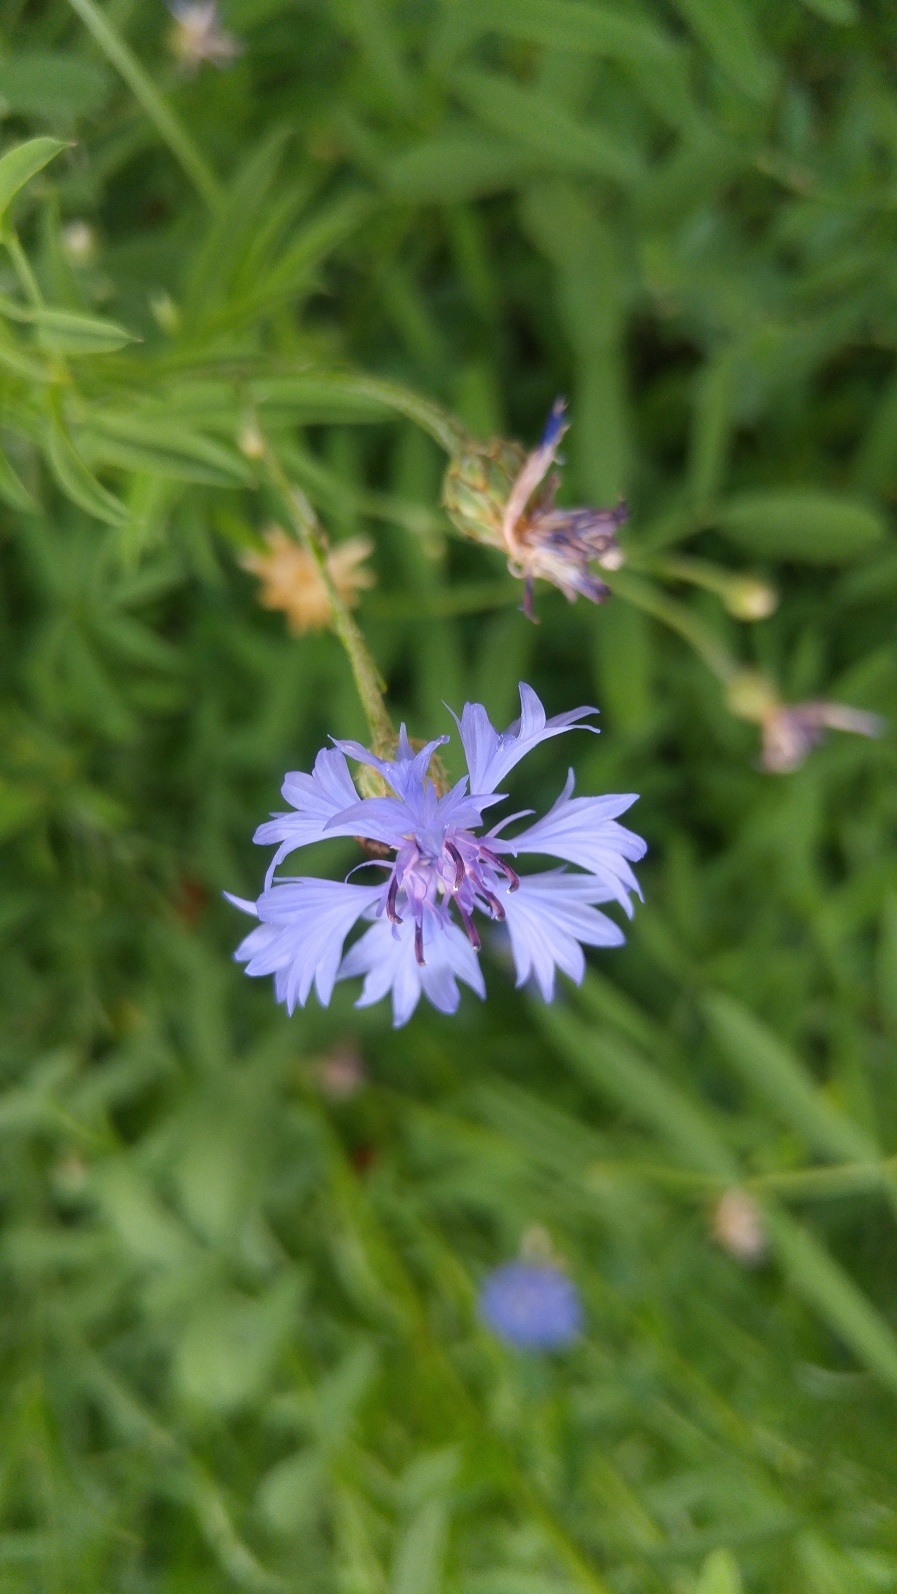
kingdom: Plantae
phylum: Tracheophyta
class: Magnoliopsida
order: Asterales
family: Asteraceae
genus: Centaurea
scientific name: Centaurea cyanus
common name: Cornflower
